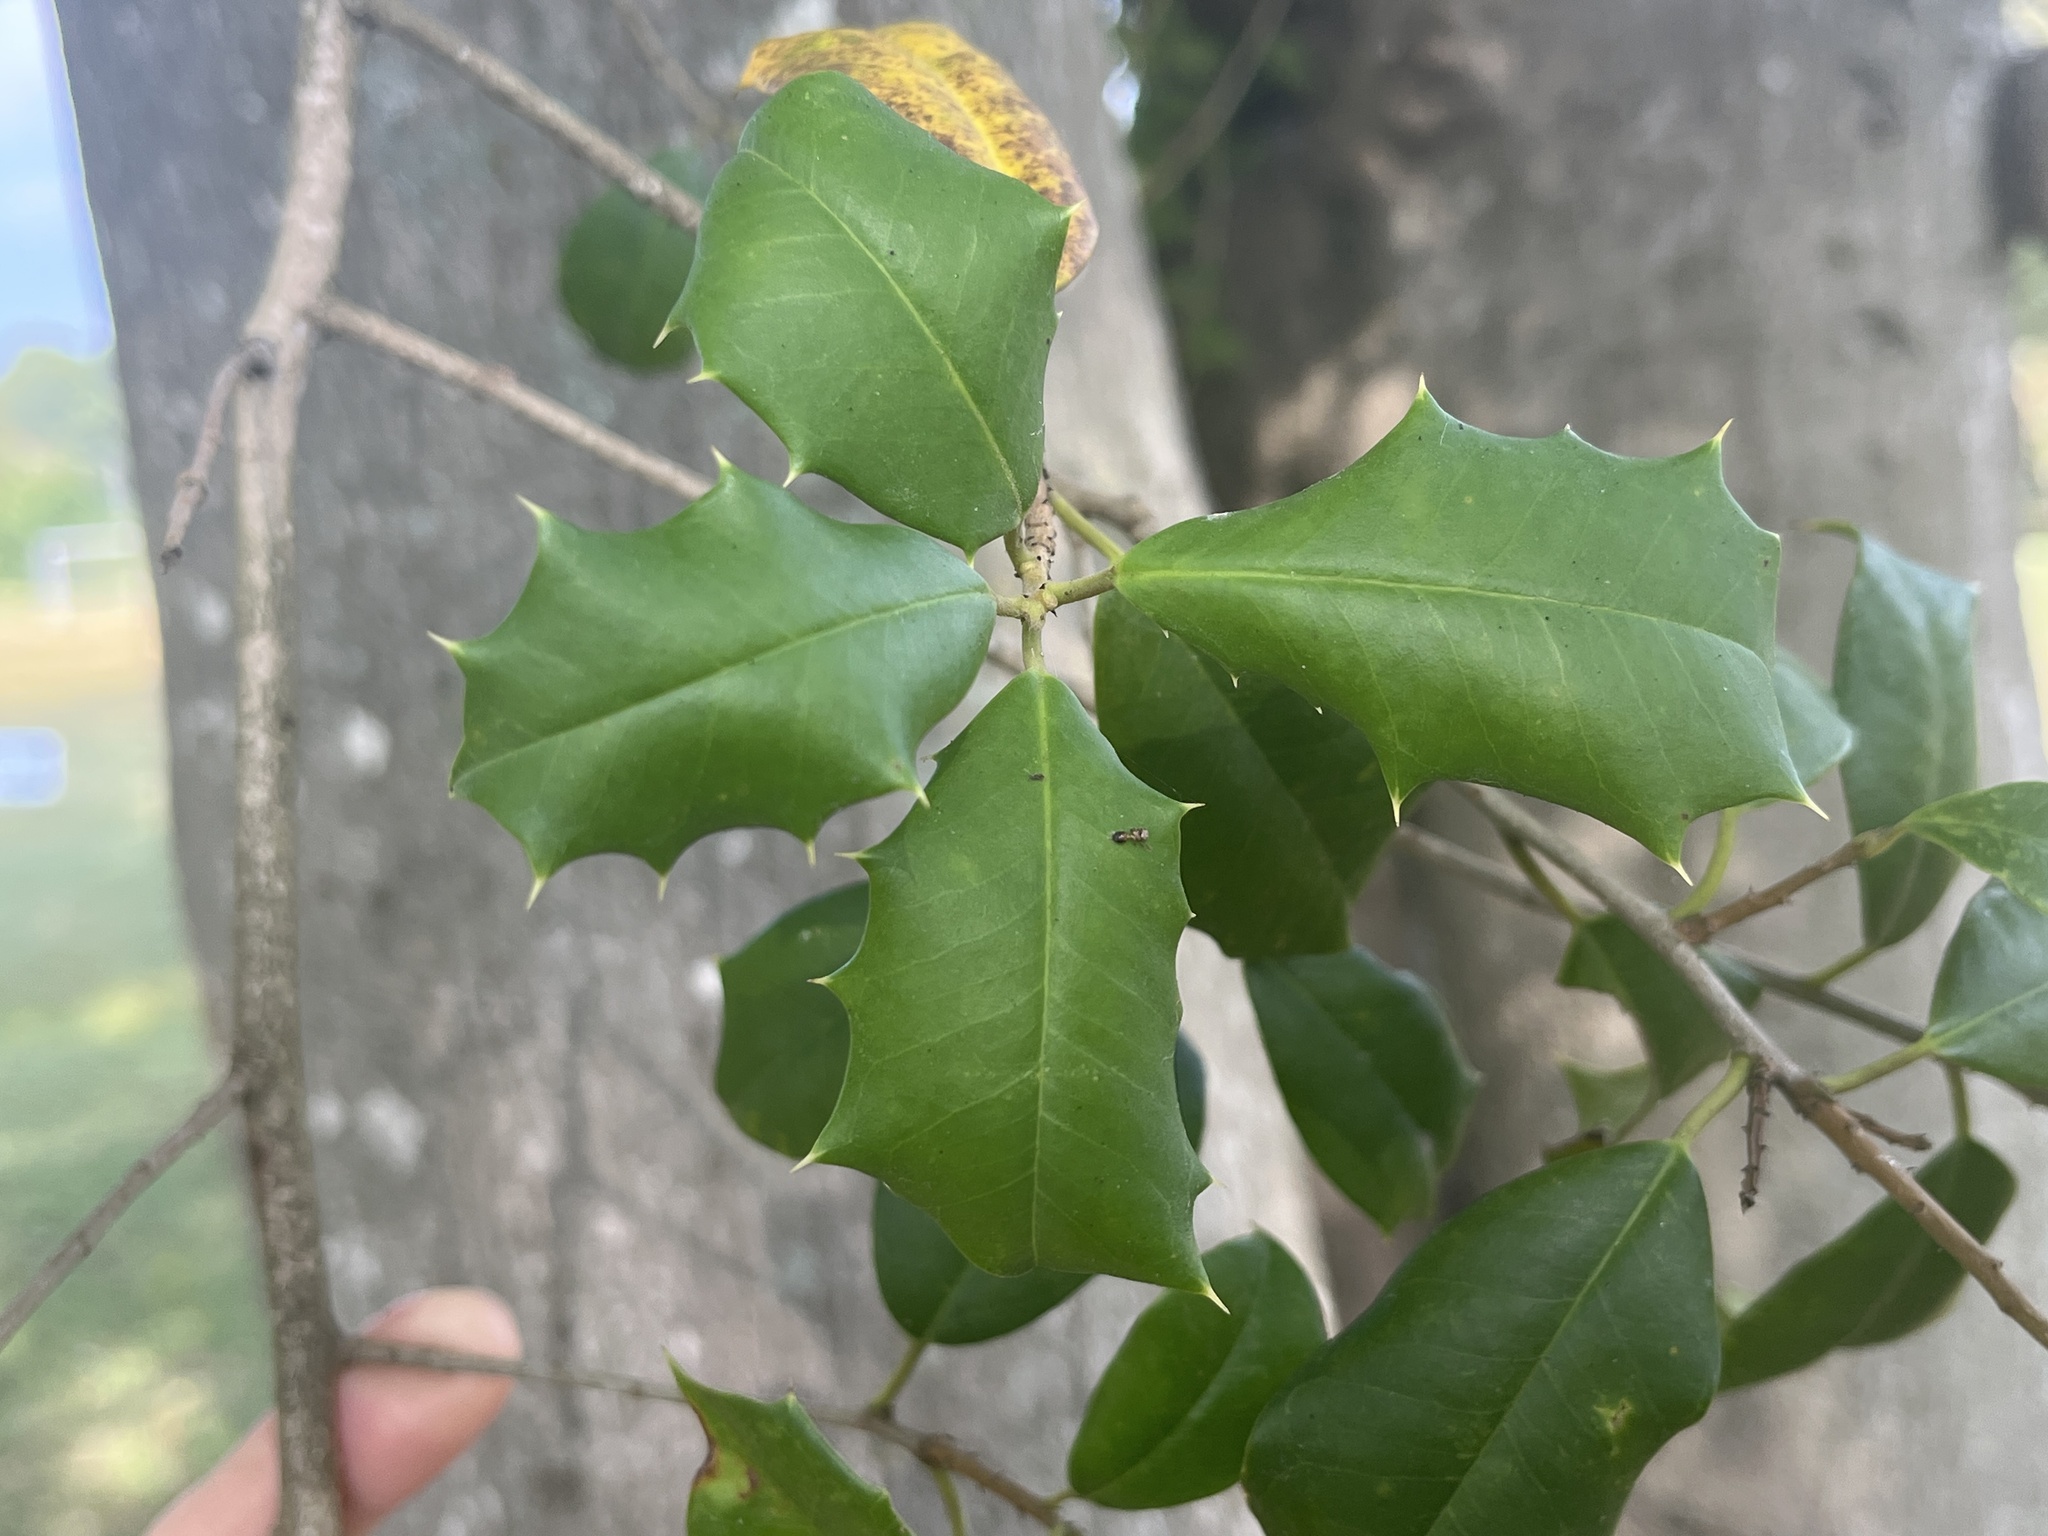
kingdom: Plantae
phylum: Tracheophyta
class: Magnoliopsida
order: Aquifoliales
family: Aquifoliaceae
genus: Ilex
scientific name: Ilex opaca
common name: American holly
